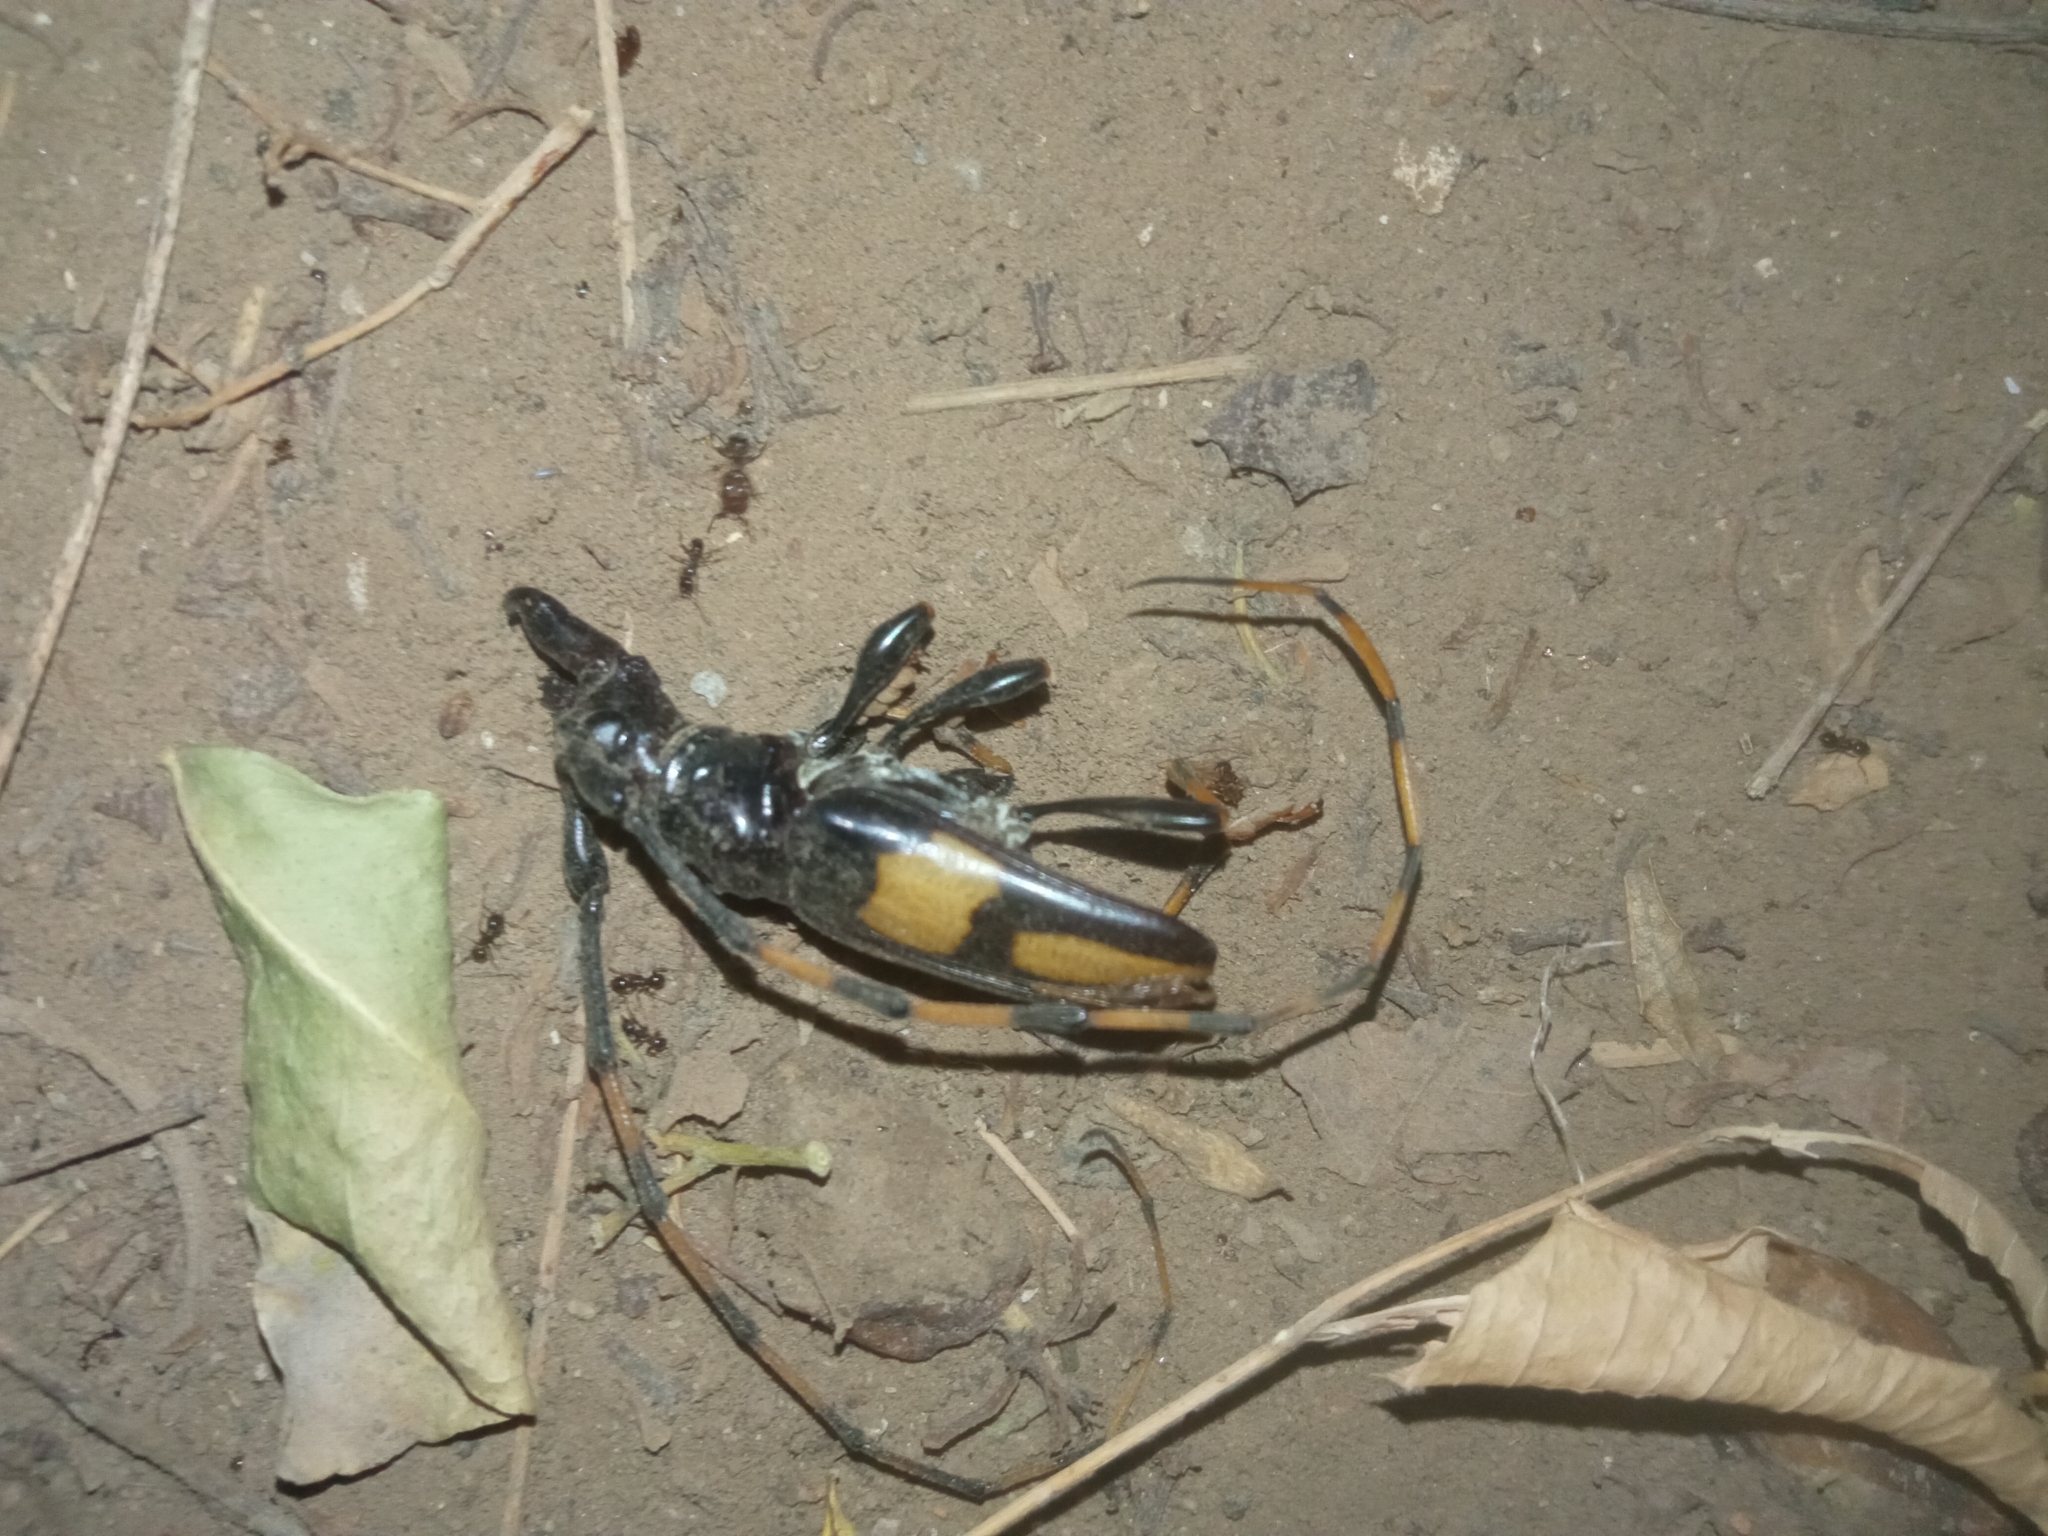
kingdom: Animalia
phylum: Arthropoda
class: Insecta
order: Coleoptera
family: Cerambycidae
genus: Trachyderes
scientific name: Trachyderes mandibularis
